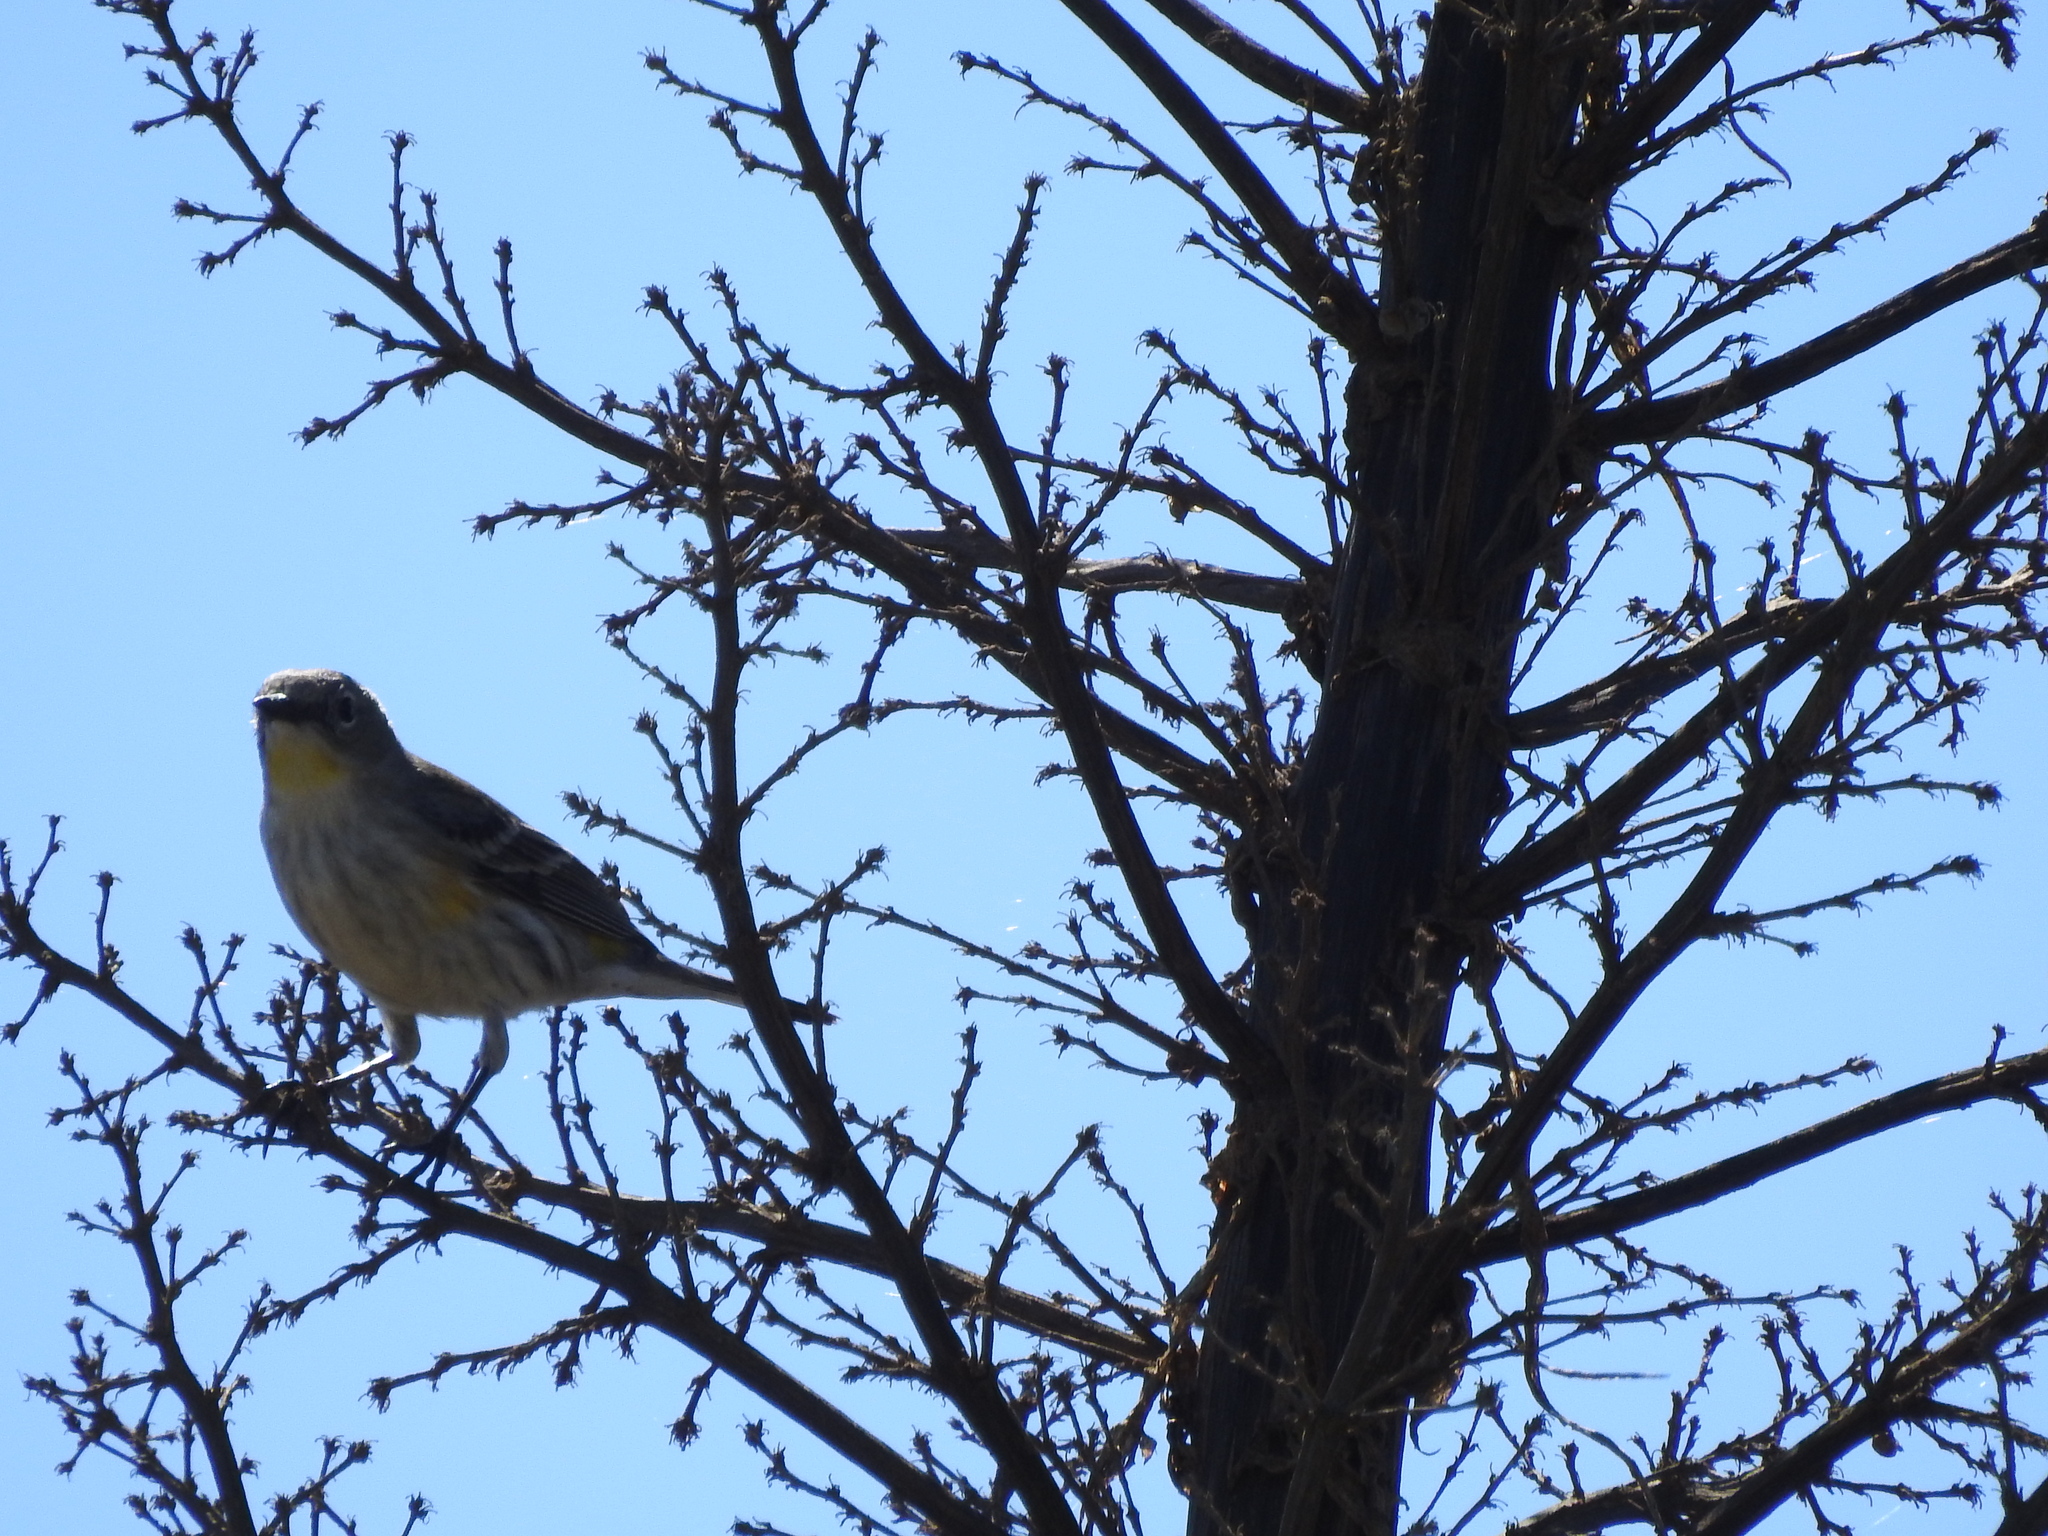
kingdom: Animalia
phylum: Chordata
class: Aves
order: Passeriformes
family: Parulidae
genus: Setophaga
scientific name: Setophaga coronata
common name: Myrtle warbler
